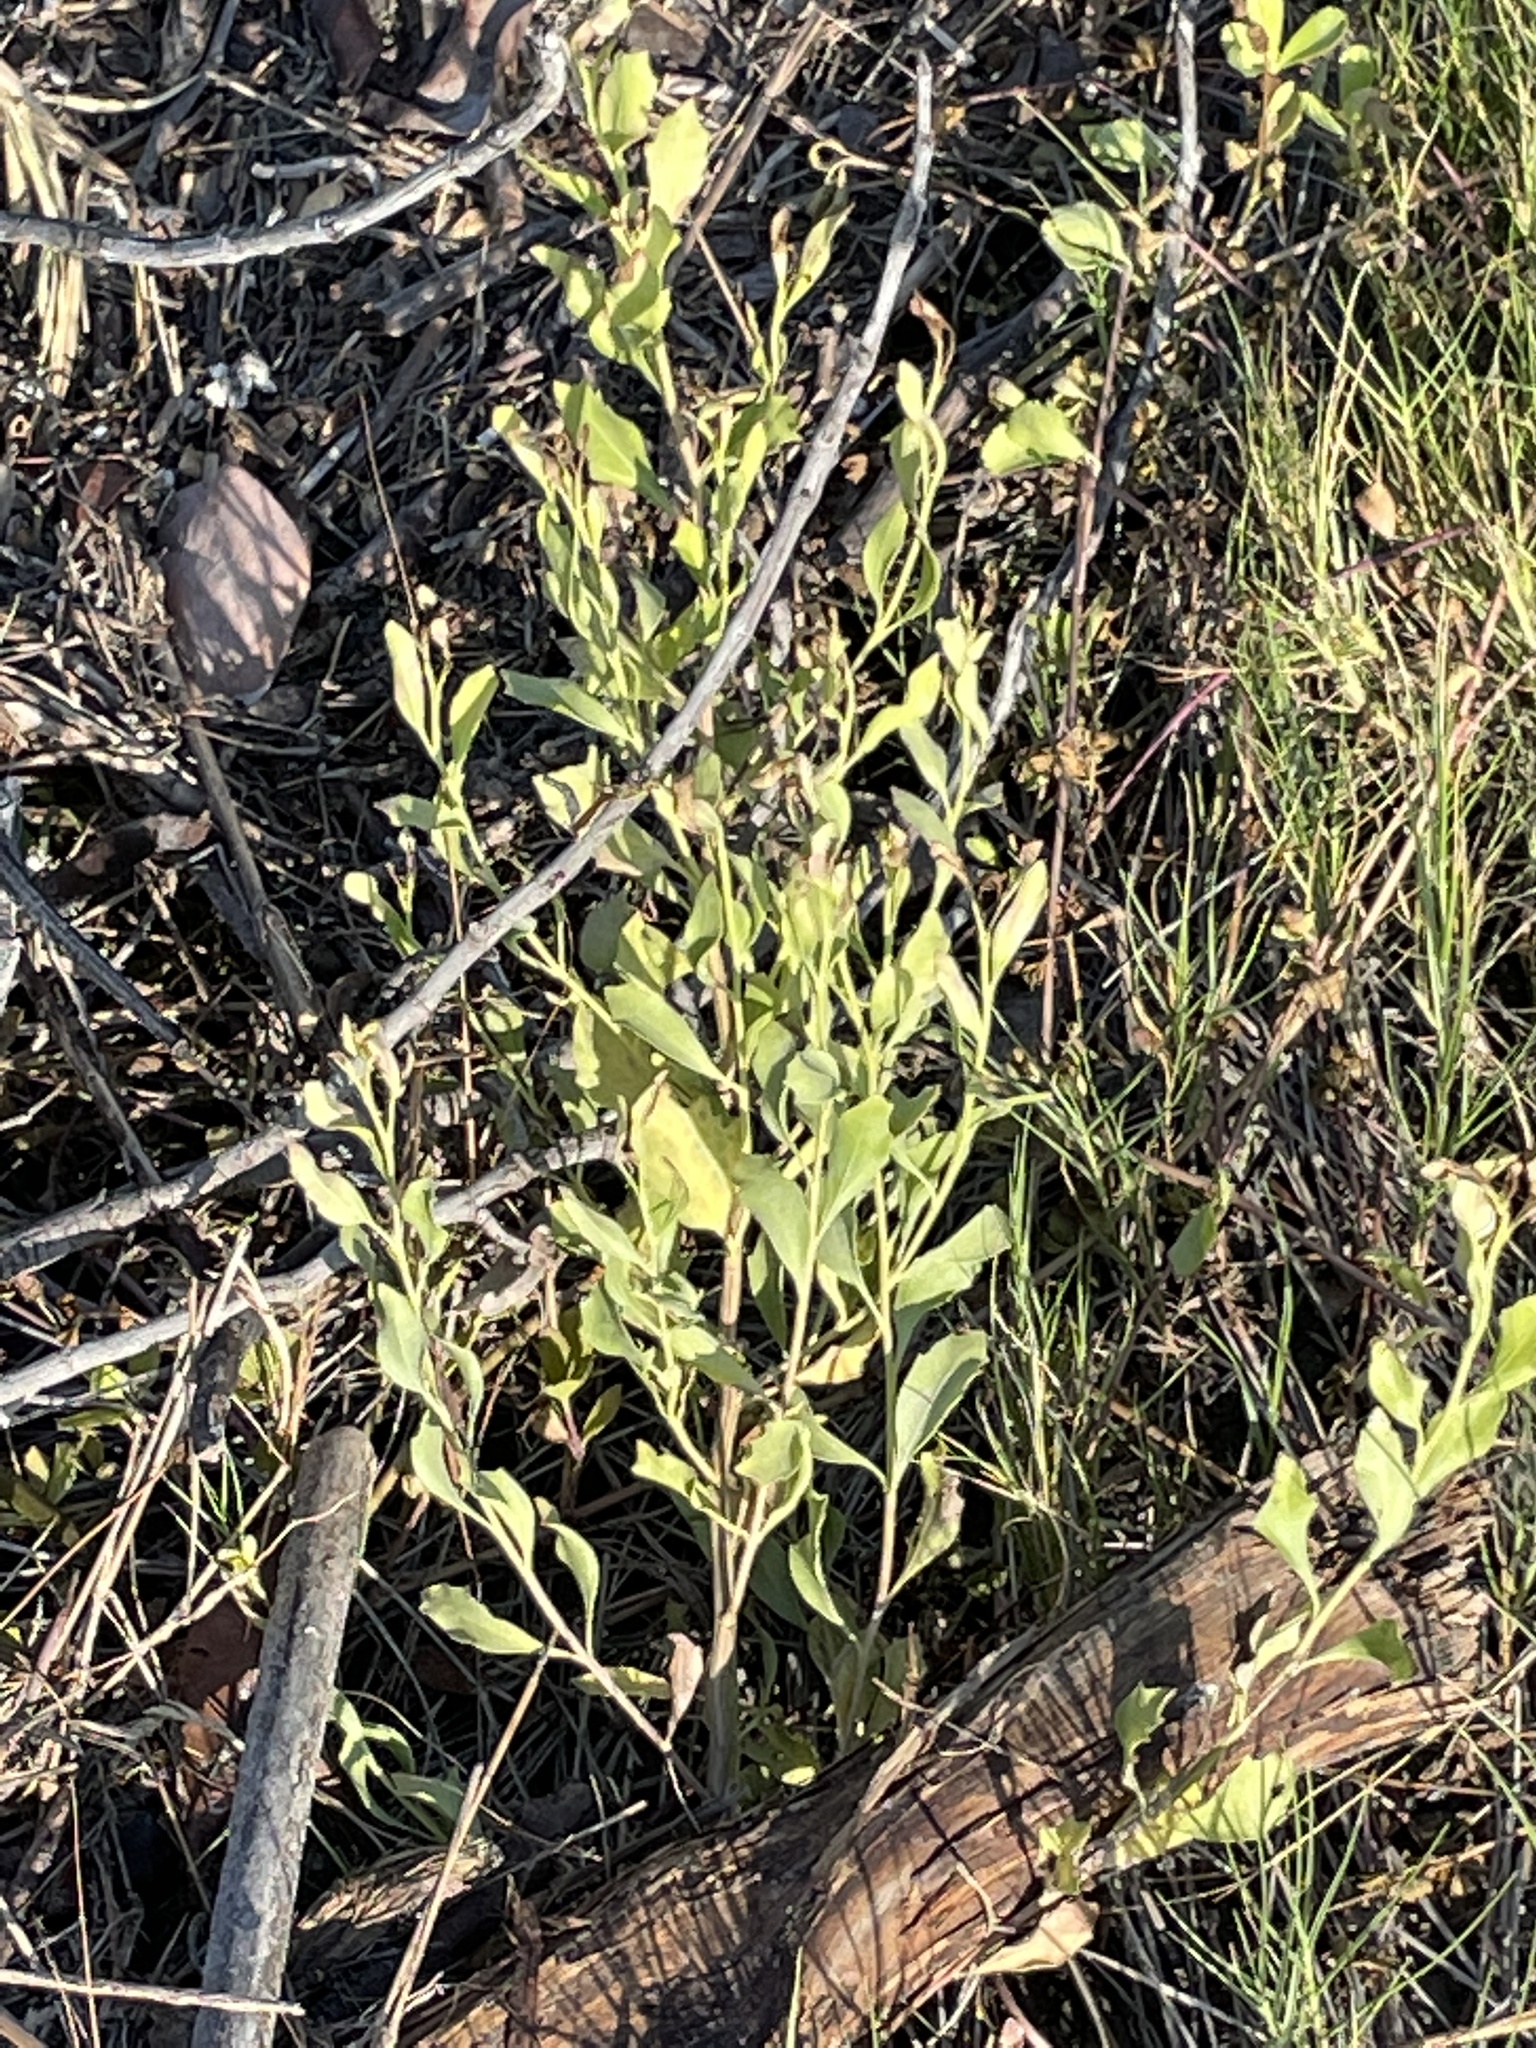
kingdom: Plantae
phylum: Tracheophyta
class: Magnoliopsida
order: Asterales
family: Asteraceae
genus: Baccharis
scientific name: Baccharis halimifolia
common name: Eastern baccharis
